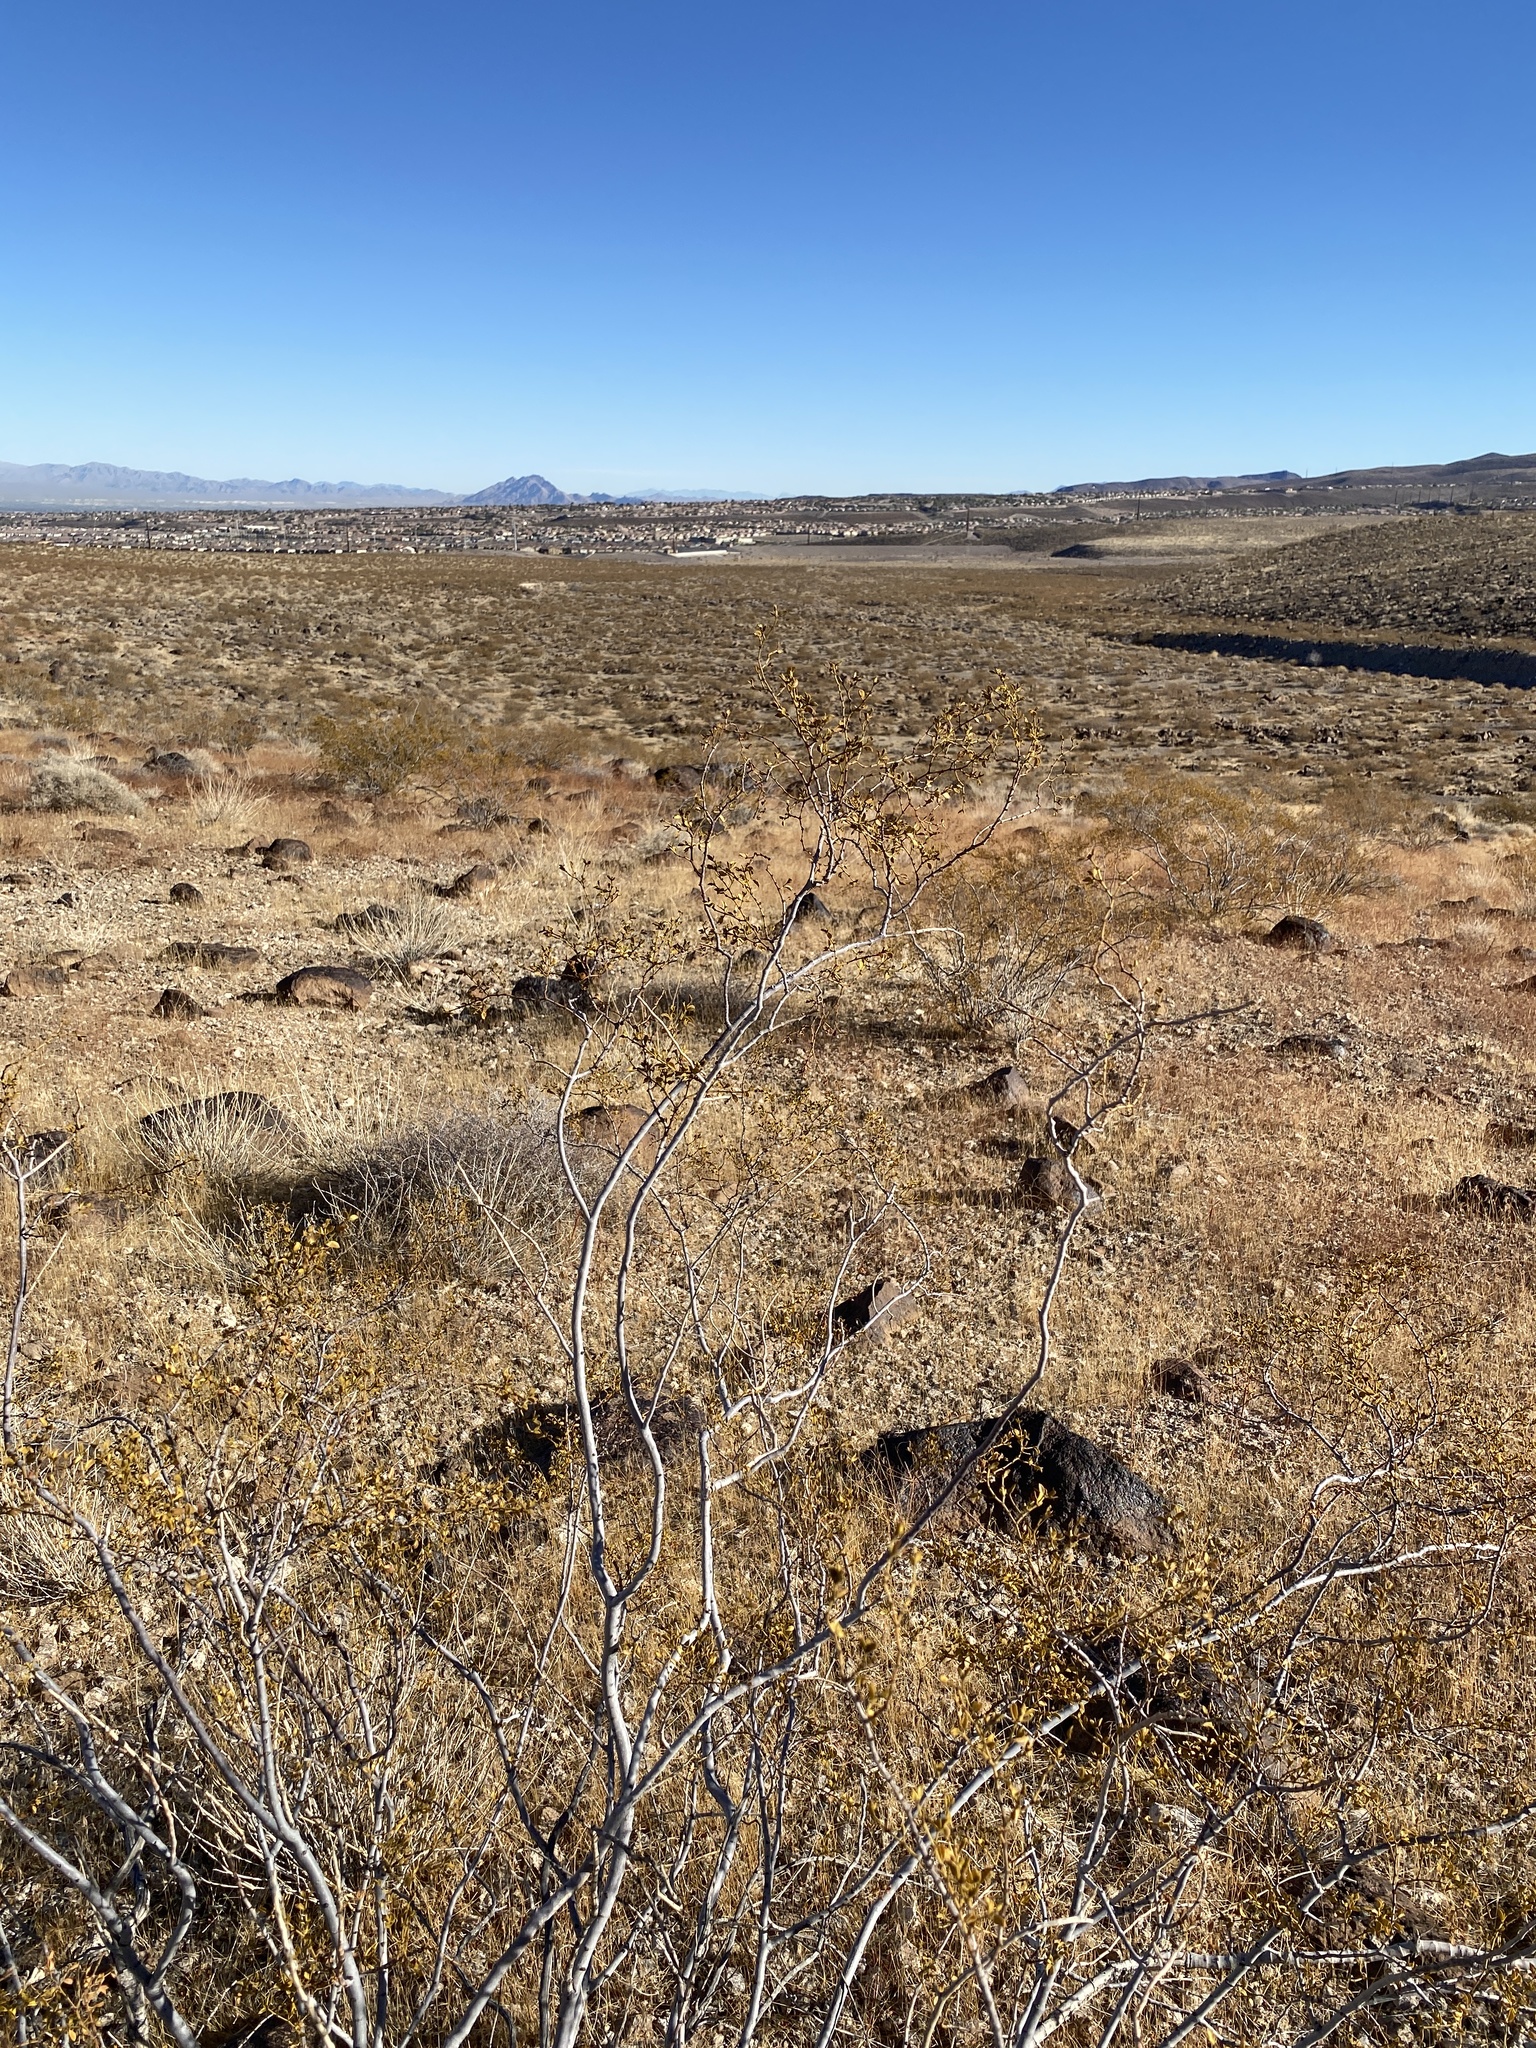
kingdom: Plantae
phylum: Tracheophyta
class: Magnoliopsida
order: Zygophyllales
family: Zygophyllaceae
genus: Larrea
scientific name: Larrea tridentata
